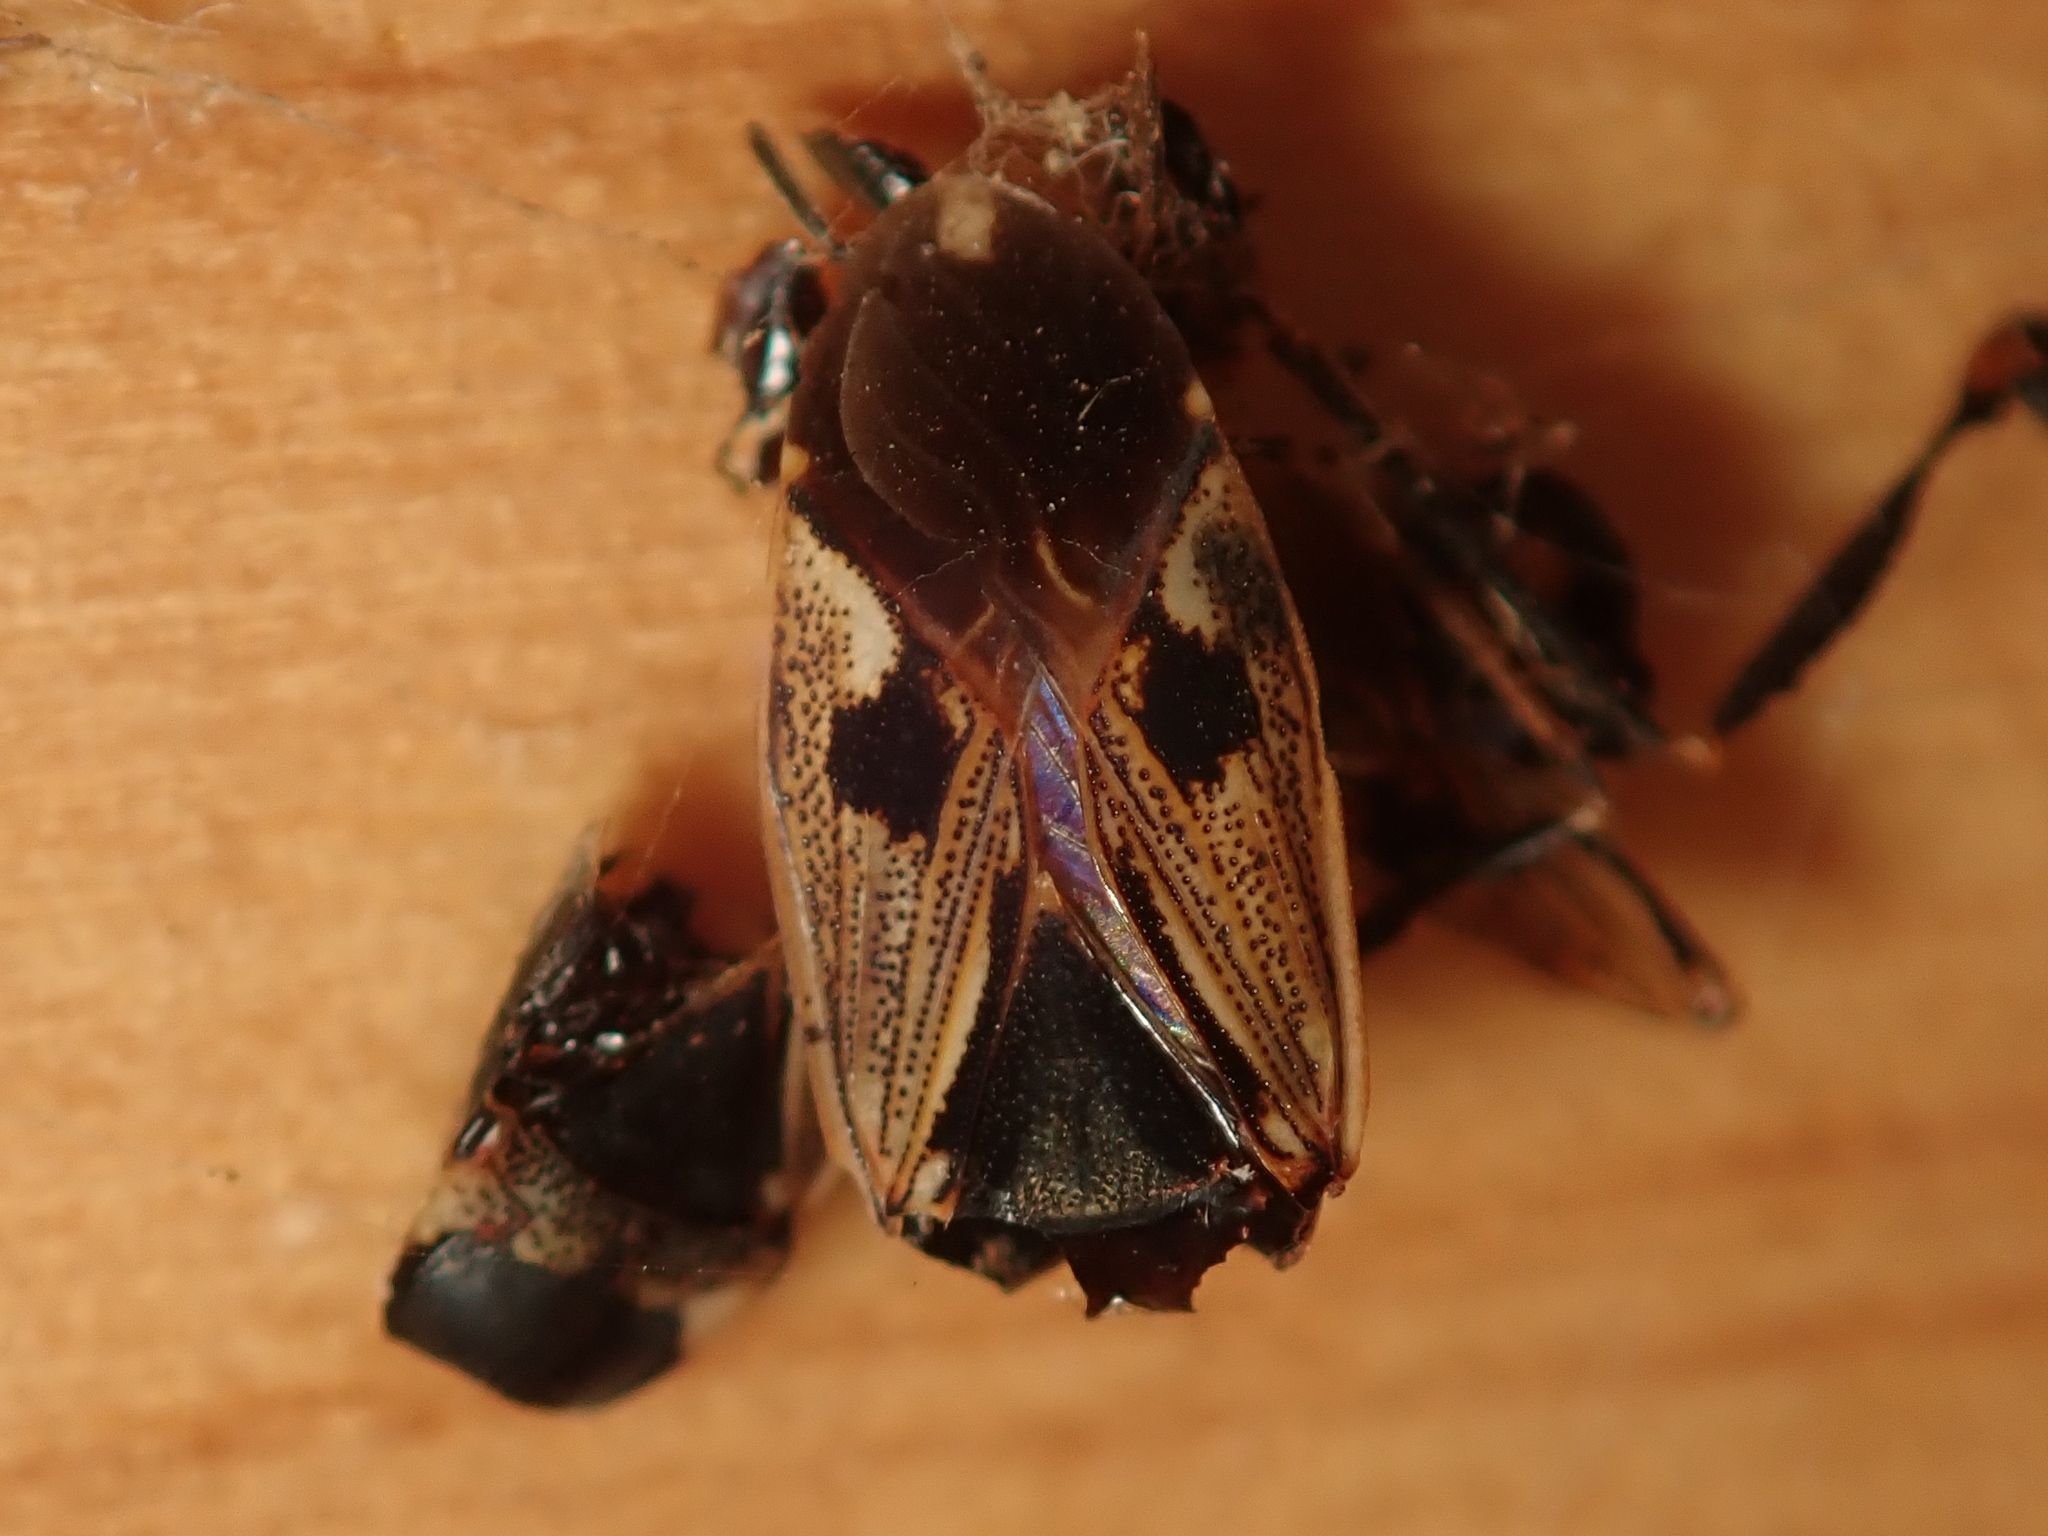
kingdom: Animalia
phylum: Arthropoda
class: Insecta
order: Hemiptera
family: Rhyparochromidae
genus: Rhyparochromus
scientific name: Rhyparochromus vulgaris
